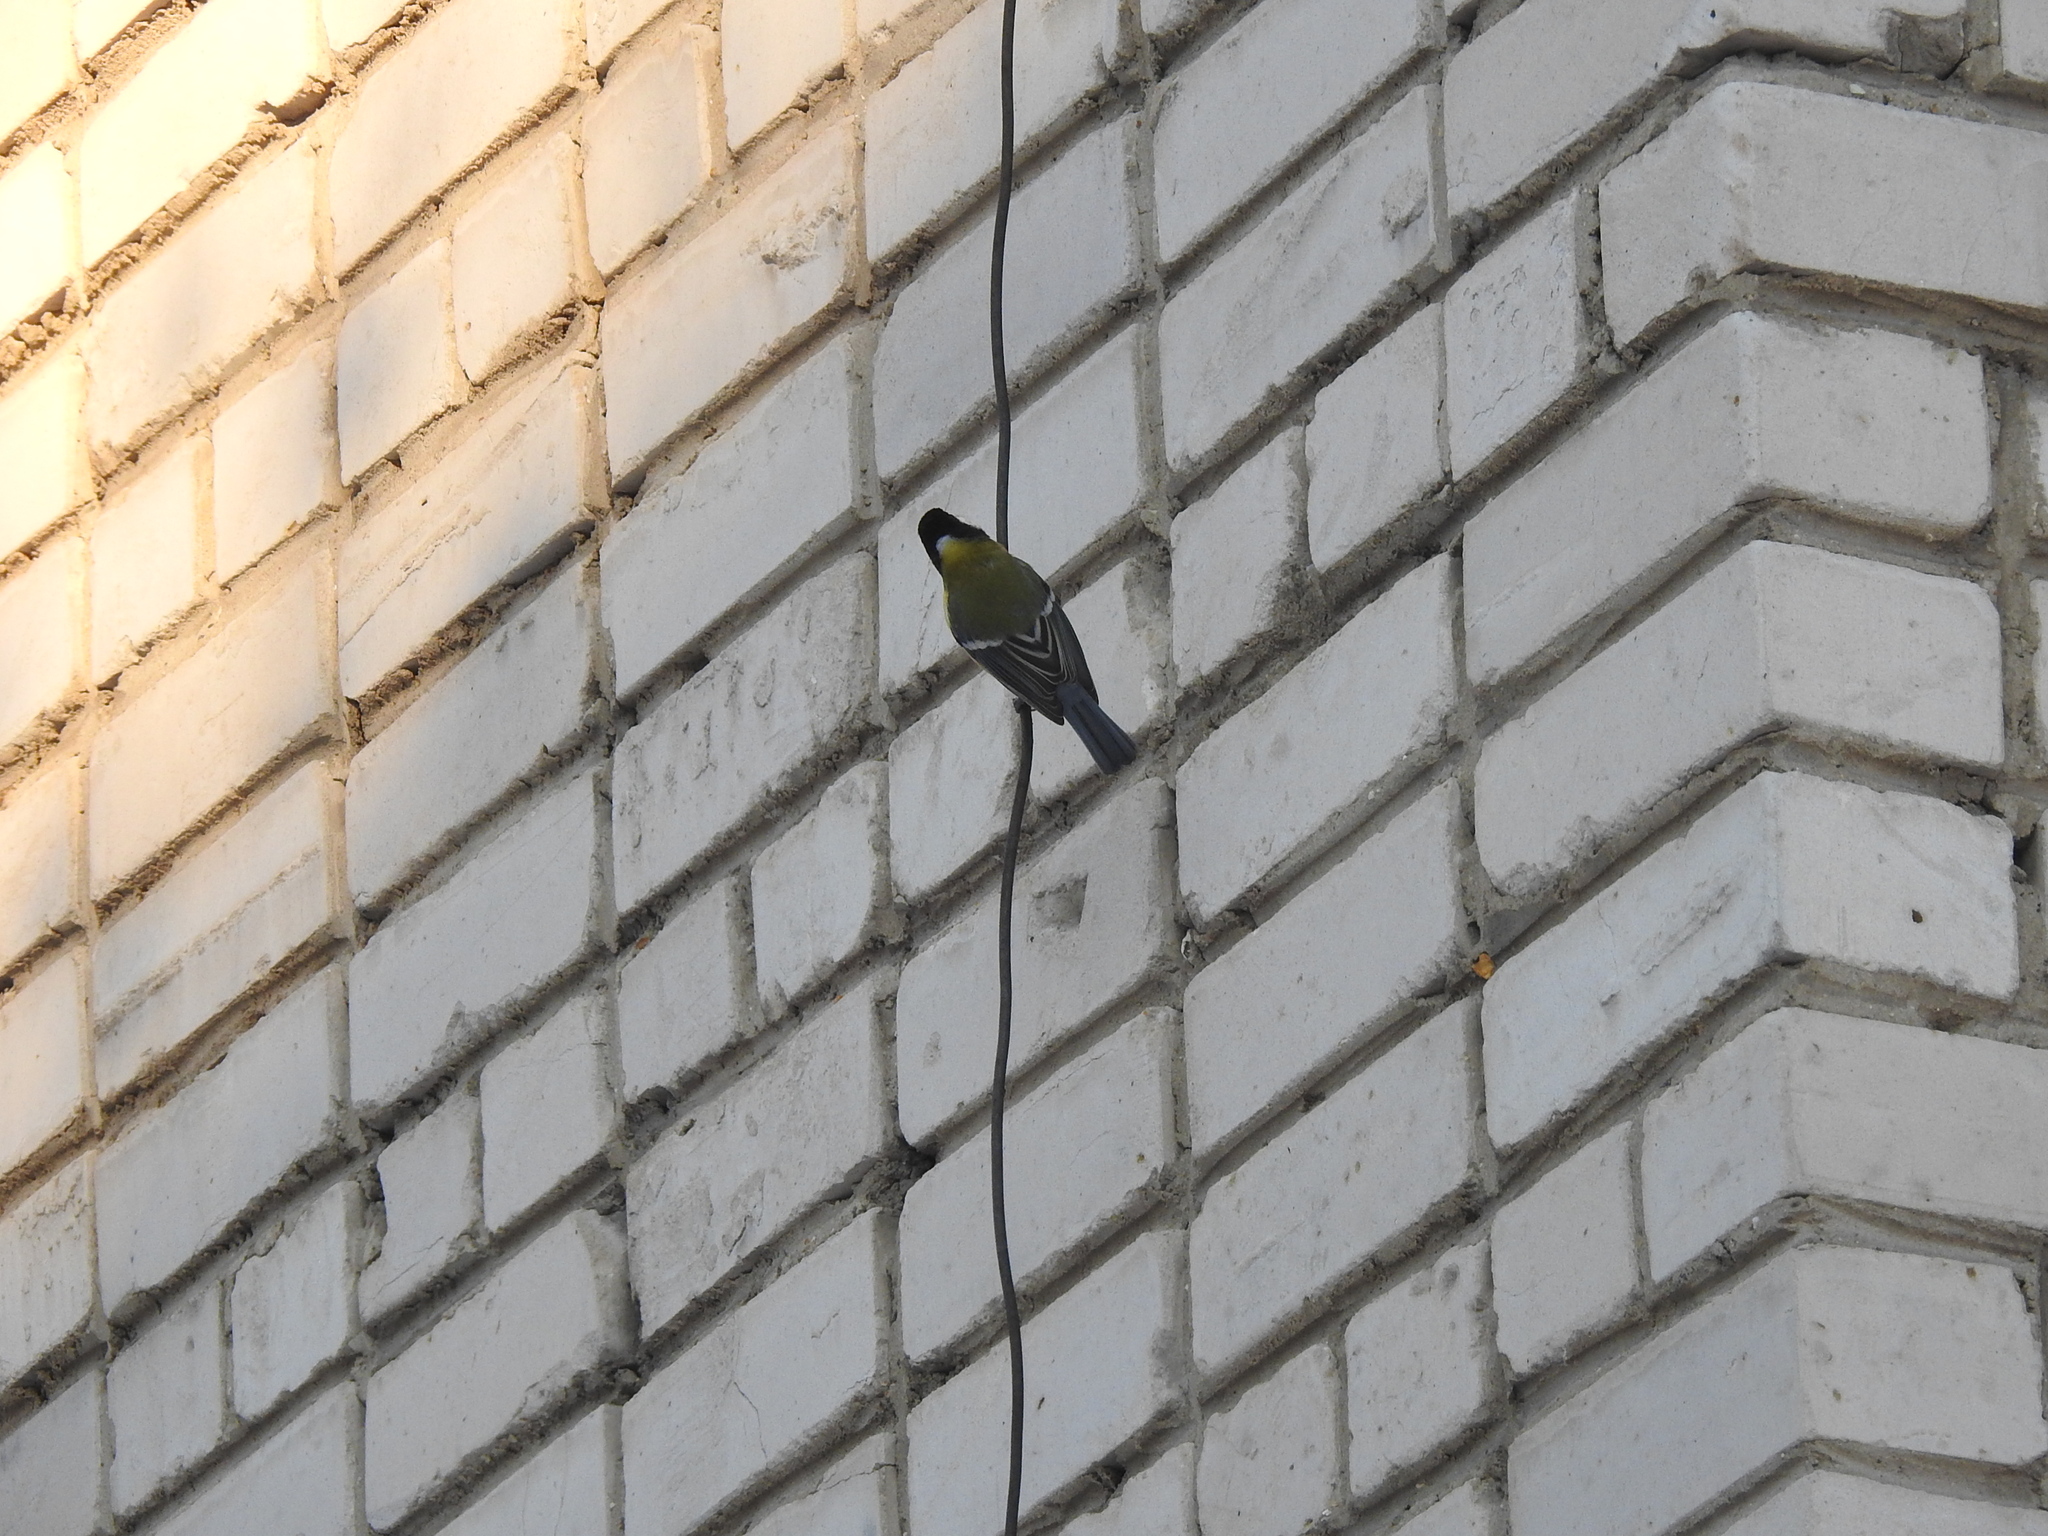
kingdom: Animalia
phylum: Chordata
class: Aves
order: Passeriformes
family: Paridae
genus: Parus
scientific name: Parus major
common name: Great tit
